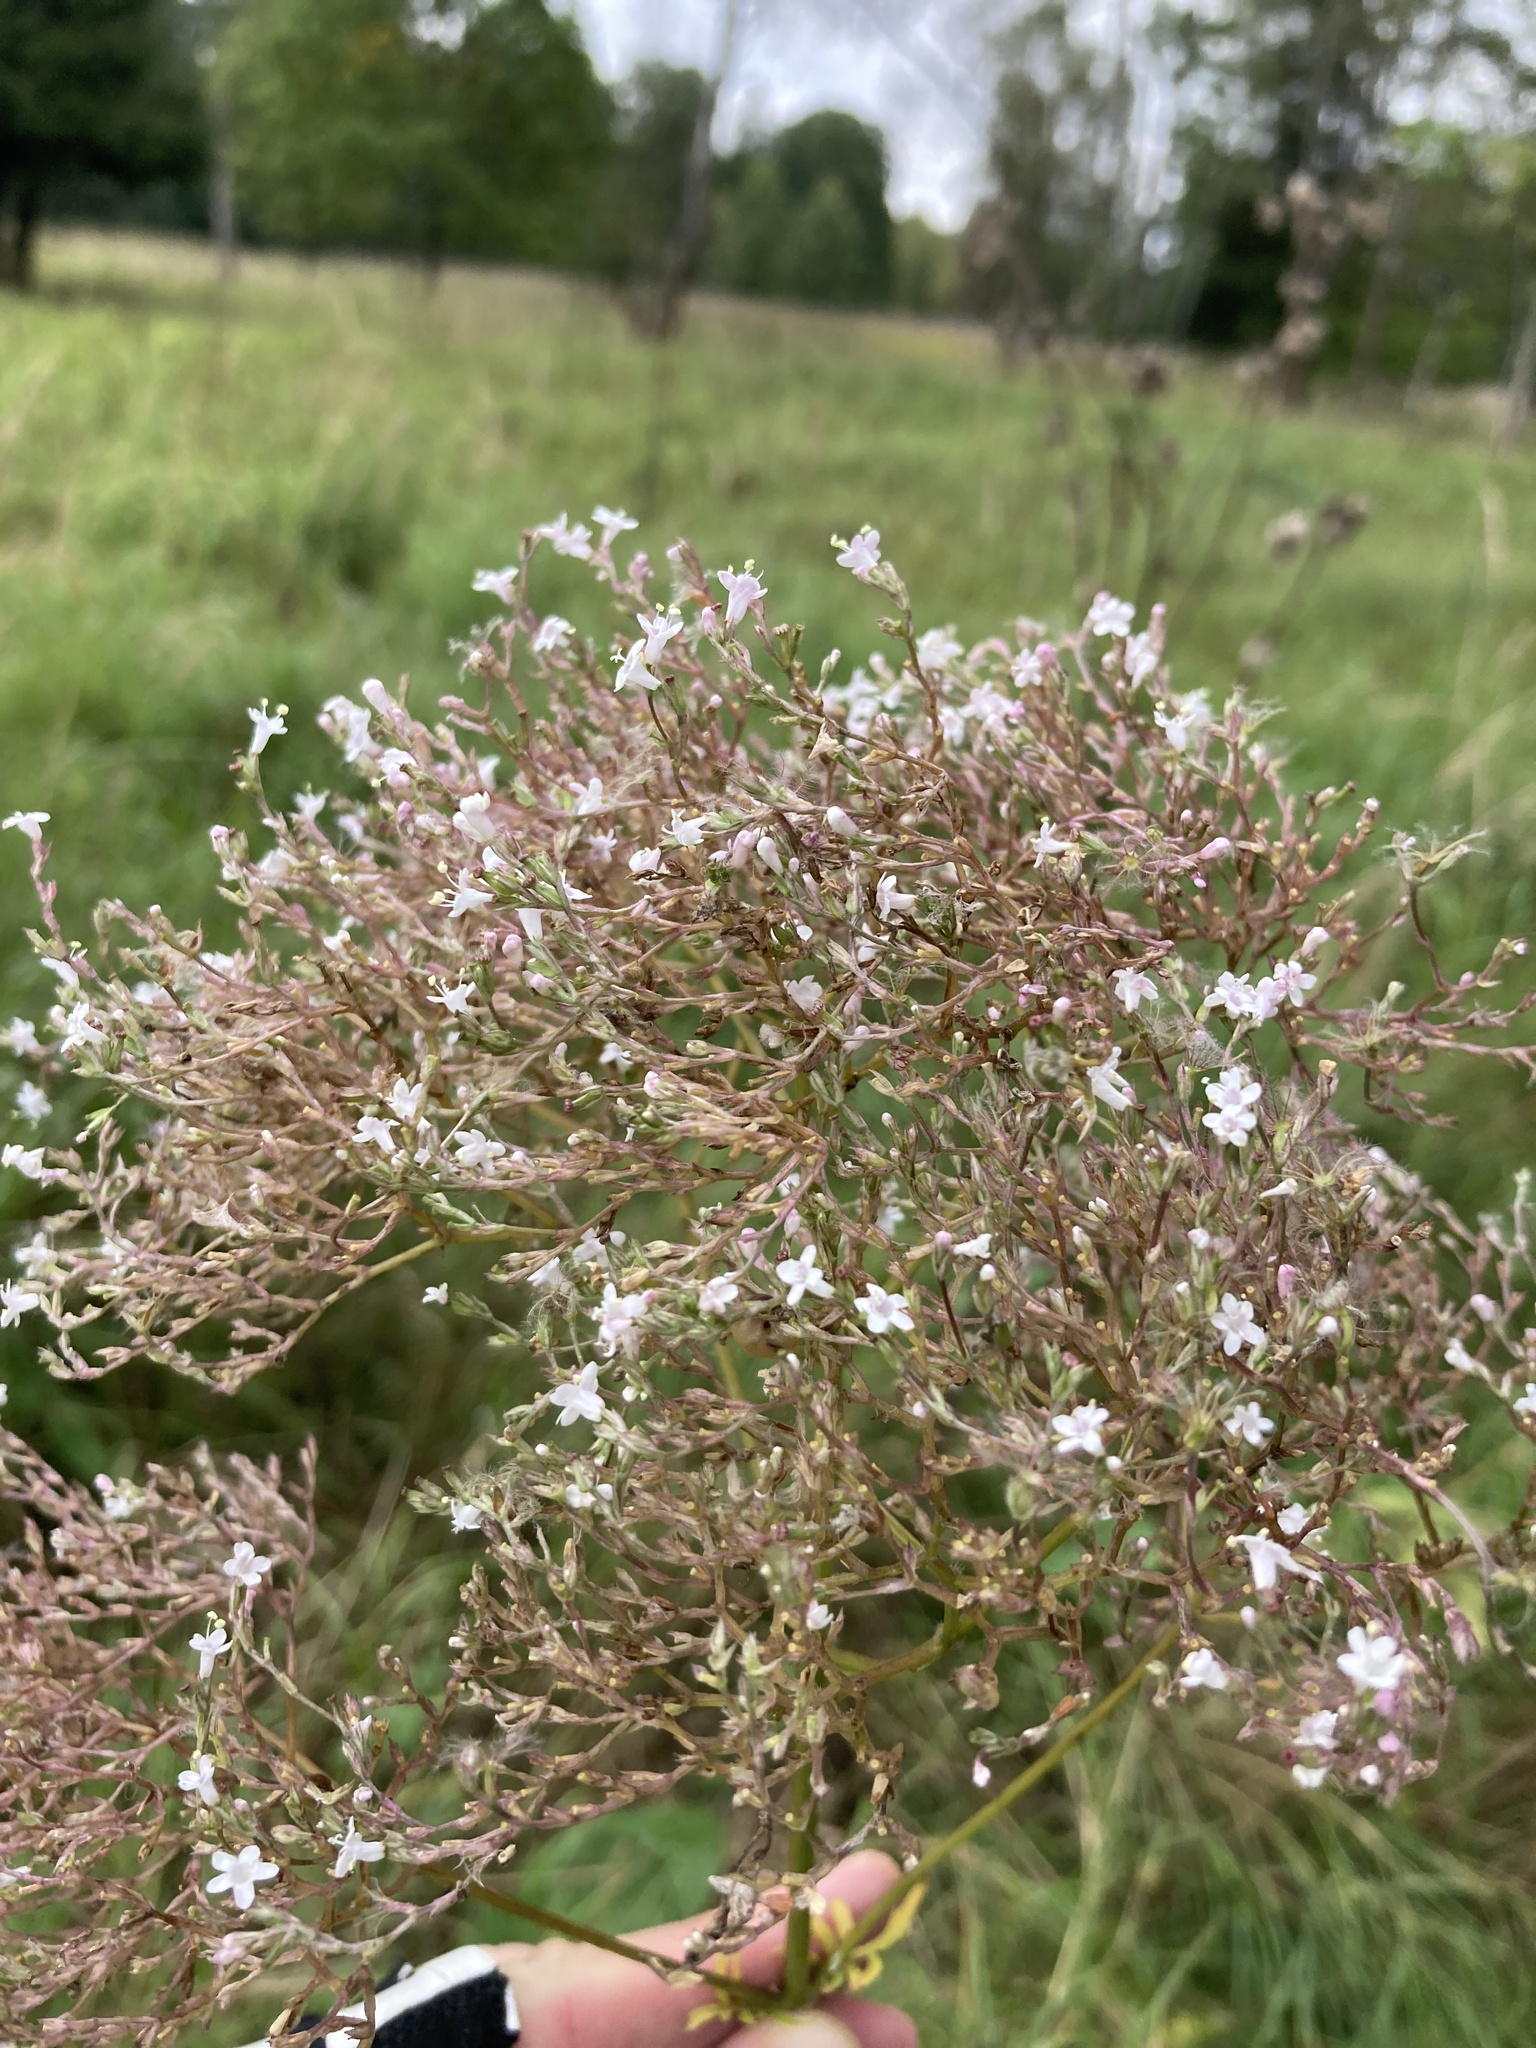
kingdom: Plantae
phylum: Tracheophyta
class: Magnoliopsida
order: Dipsacales
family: Caprifoliaceae
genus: Valeriana
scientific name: Valeriana officinalis
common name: Common valerian
